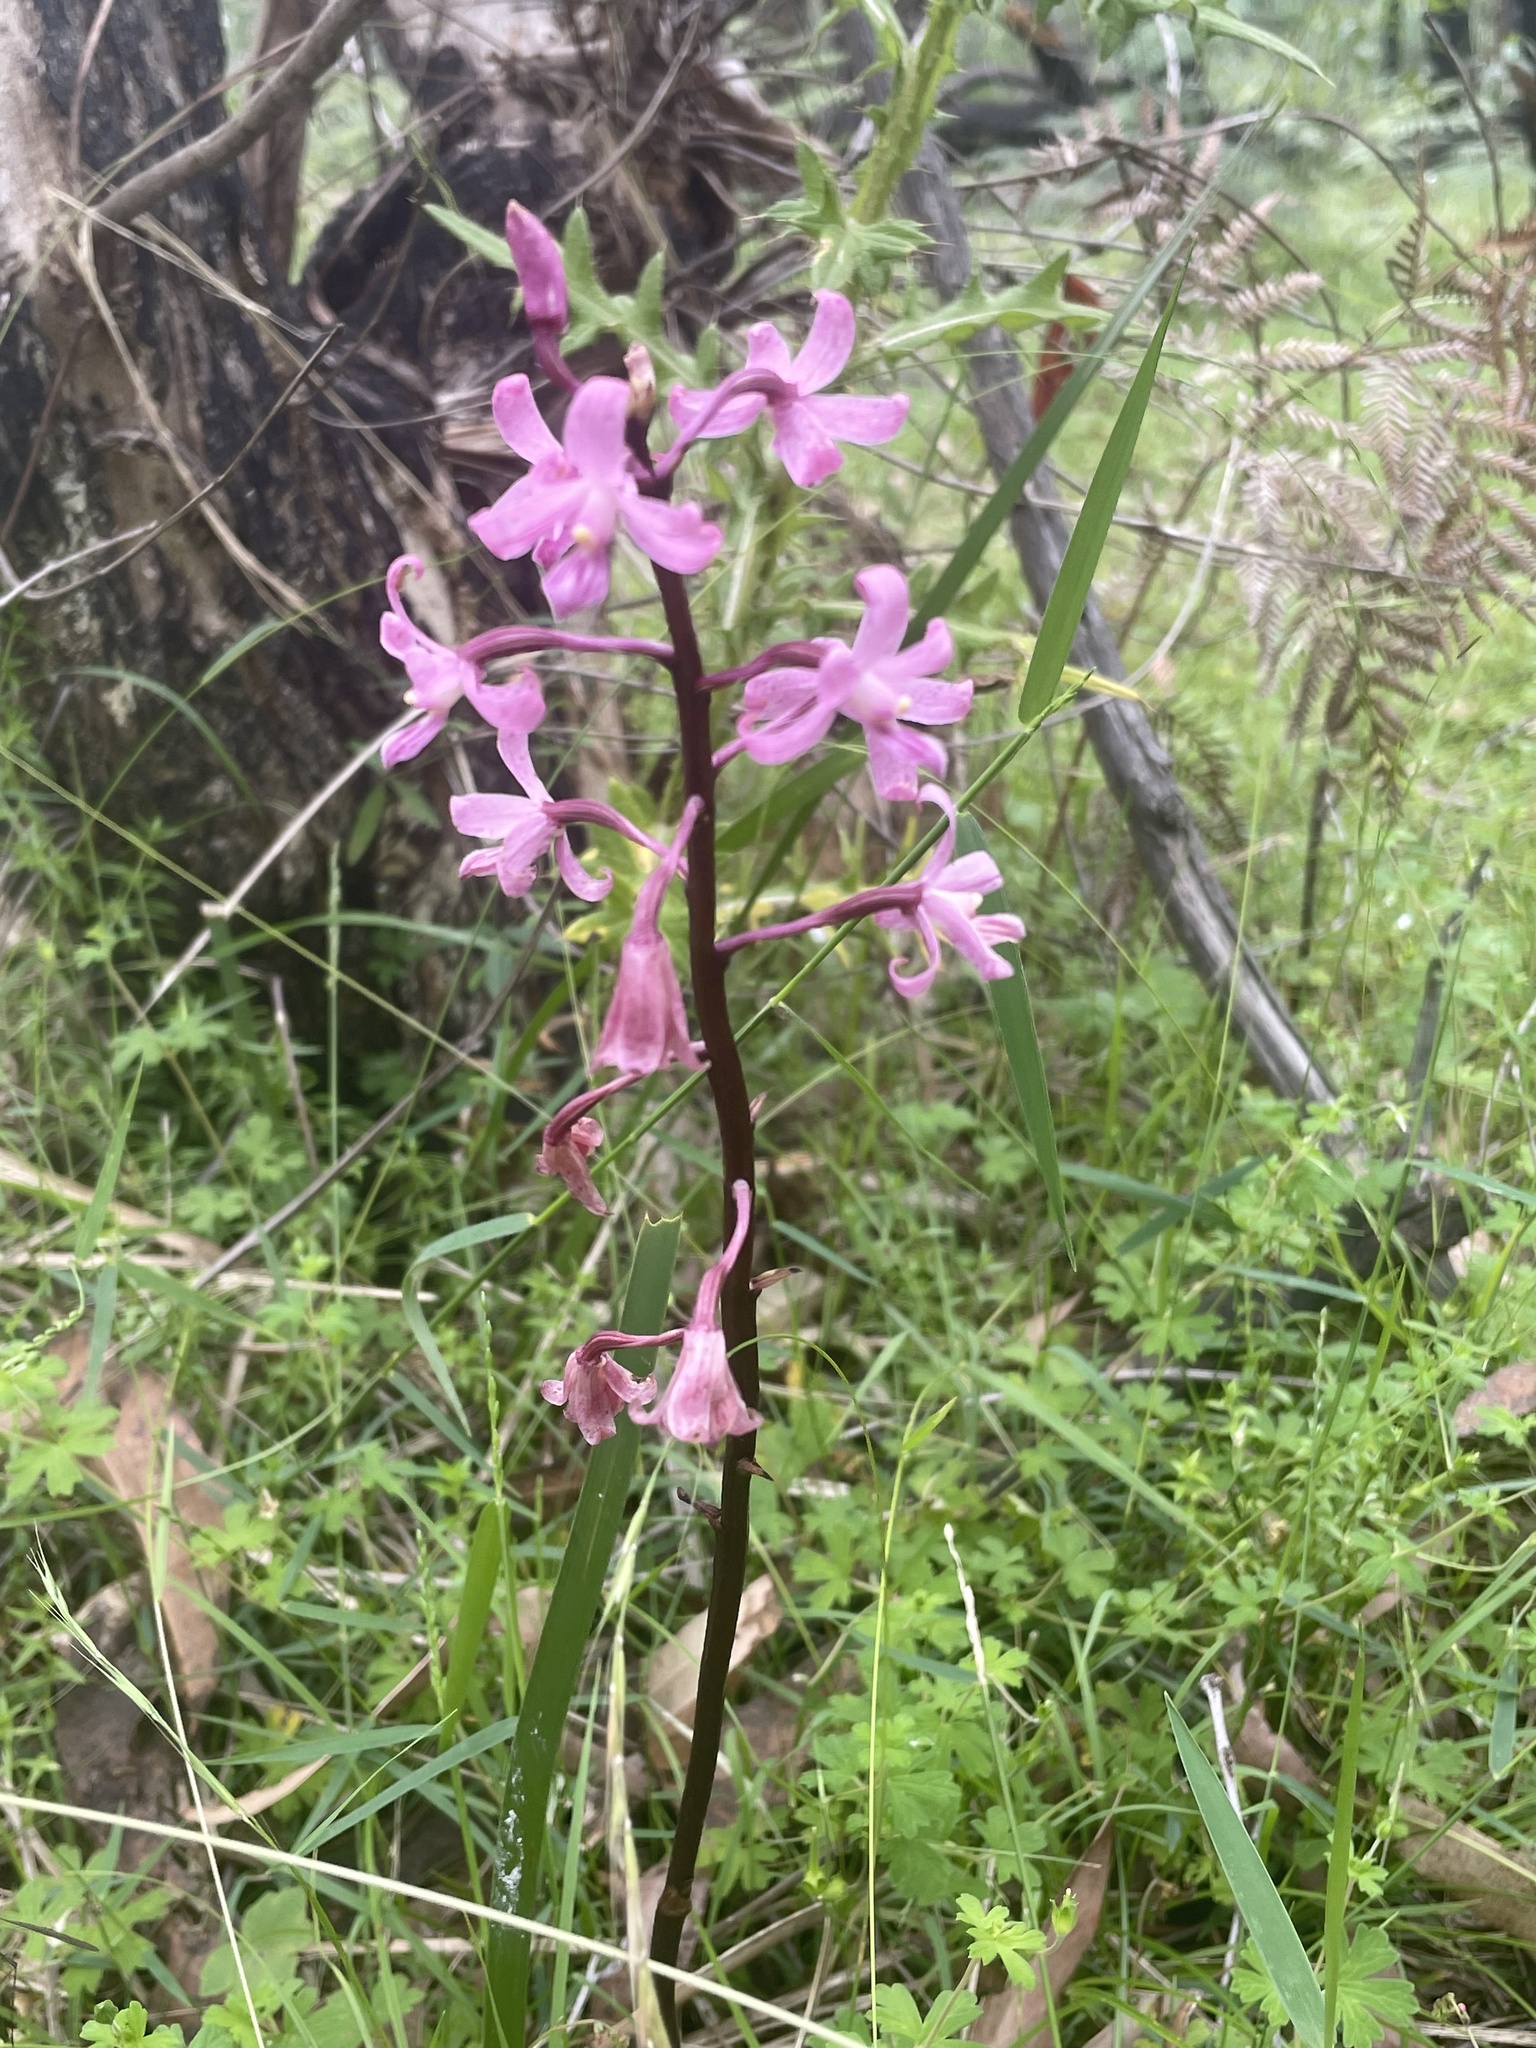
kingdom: Plantae
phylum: Tracheophyta
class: Liliopsida
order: Asparagales
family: Orchidaceae
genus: Dipodium
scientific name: Dipodium roseum
